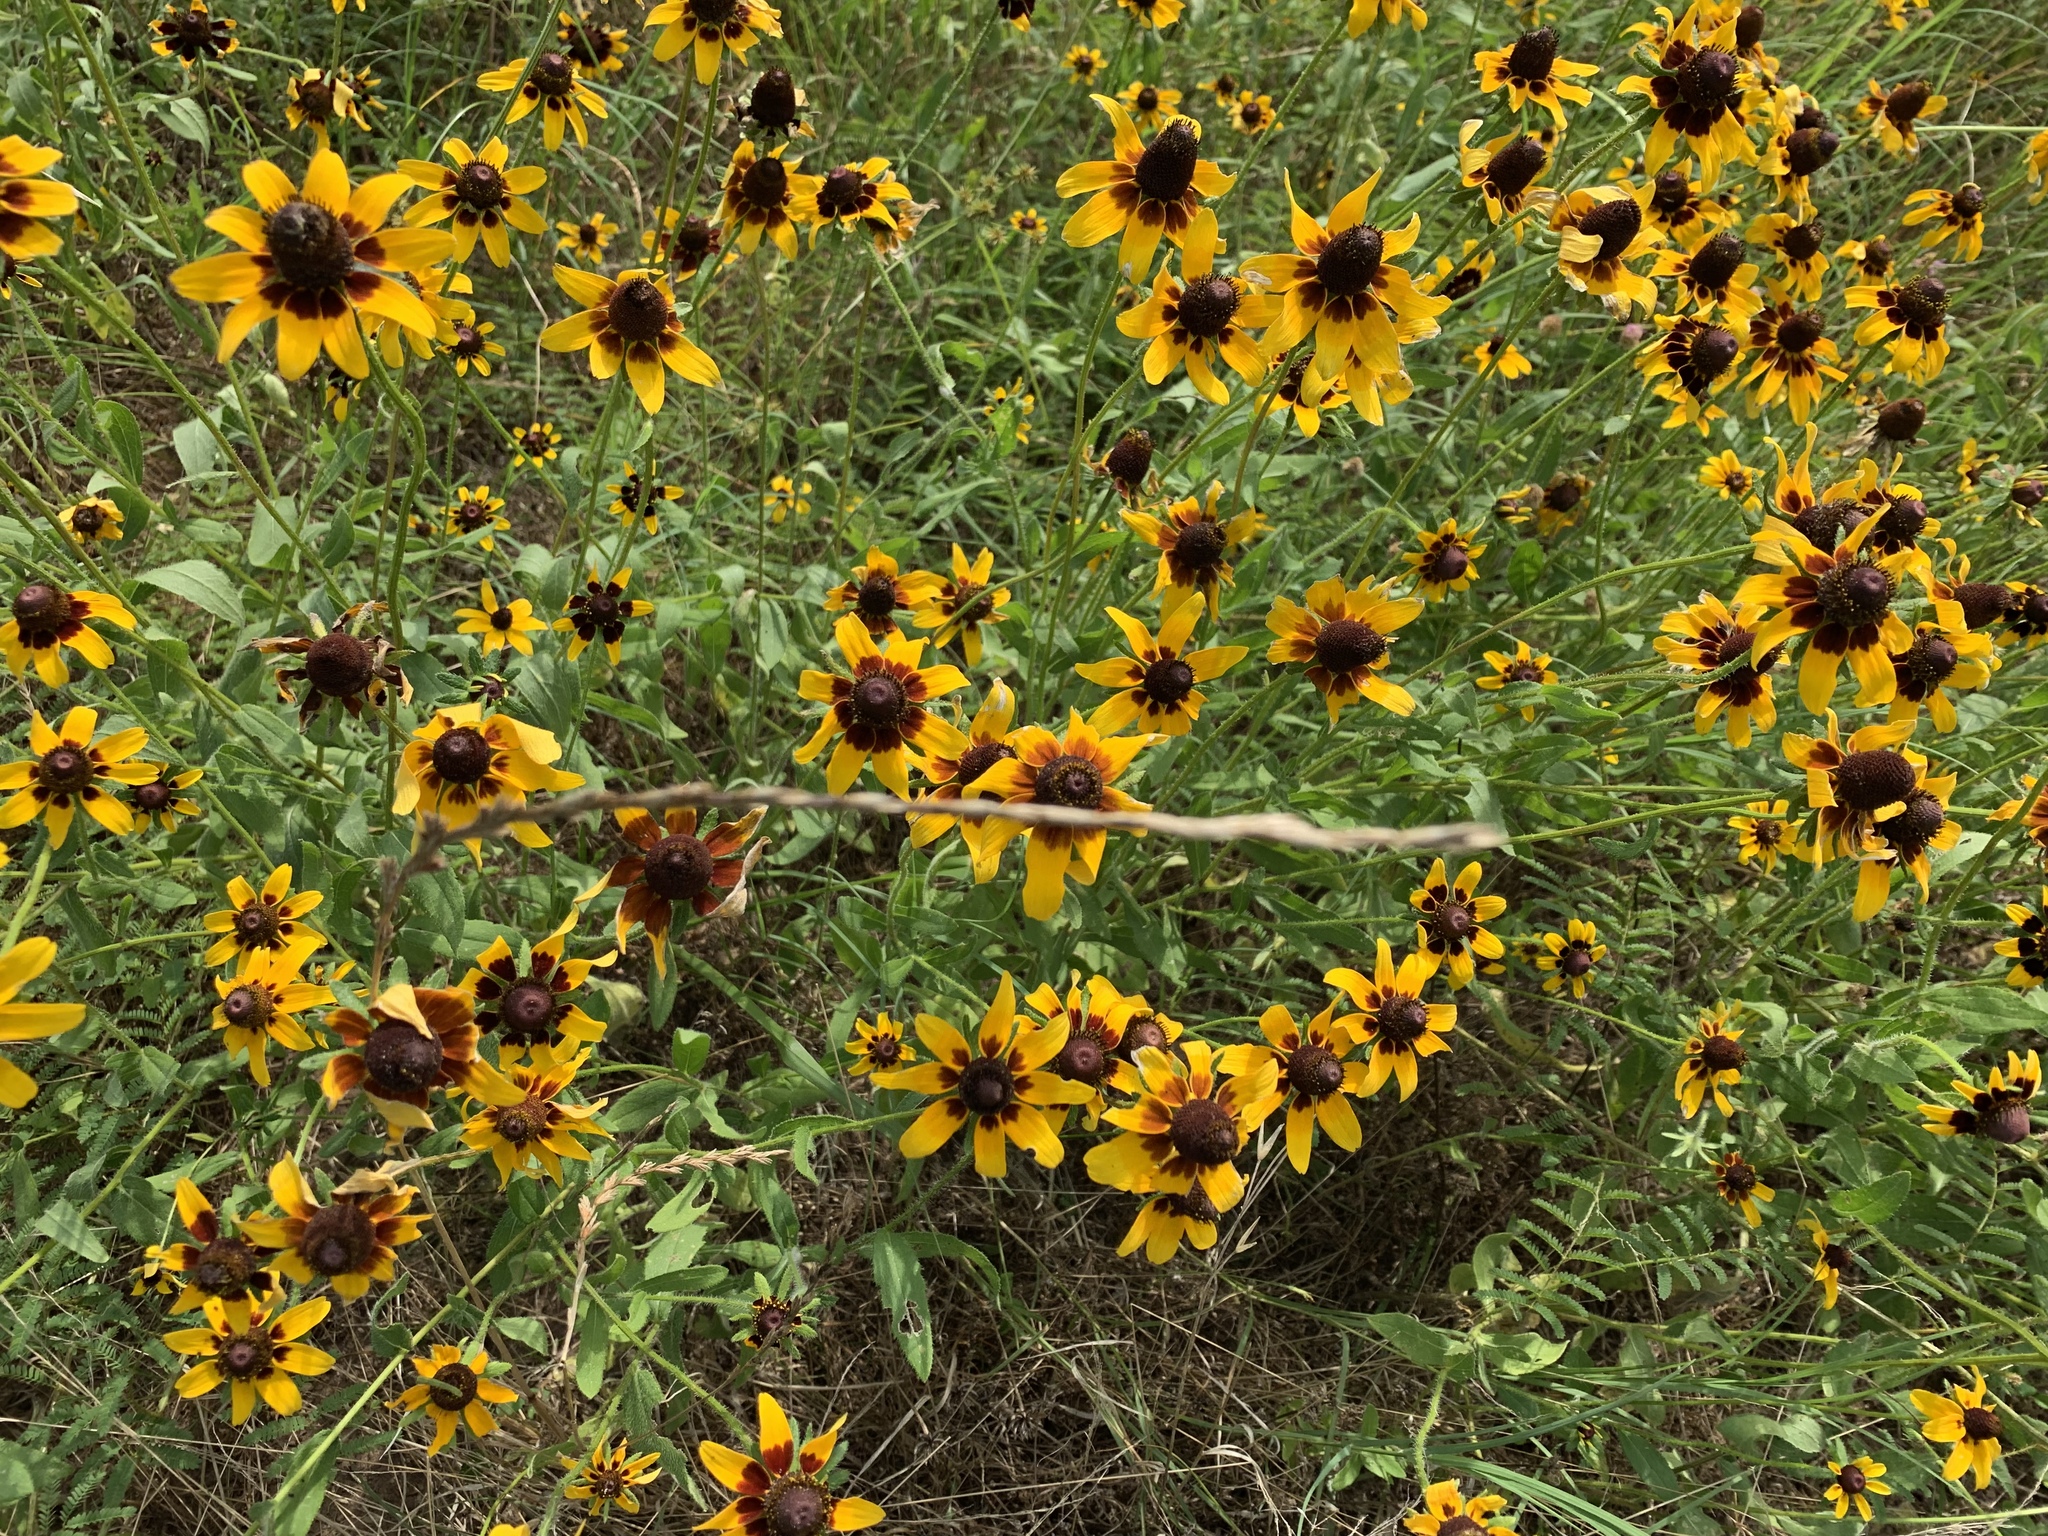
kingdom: Plantae
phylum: Tracheophyta
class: Magnoliopsida
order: Asterales
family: Asteraceae
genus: Rudbeckia
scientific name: Rudbeckia hirta
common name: Black-eyed-susan
